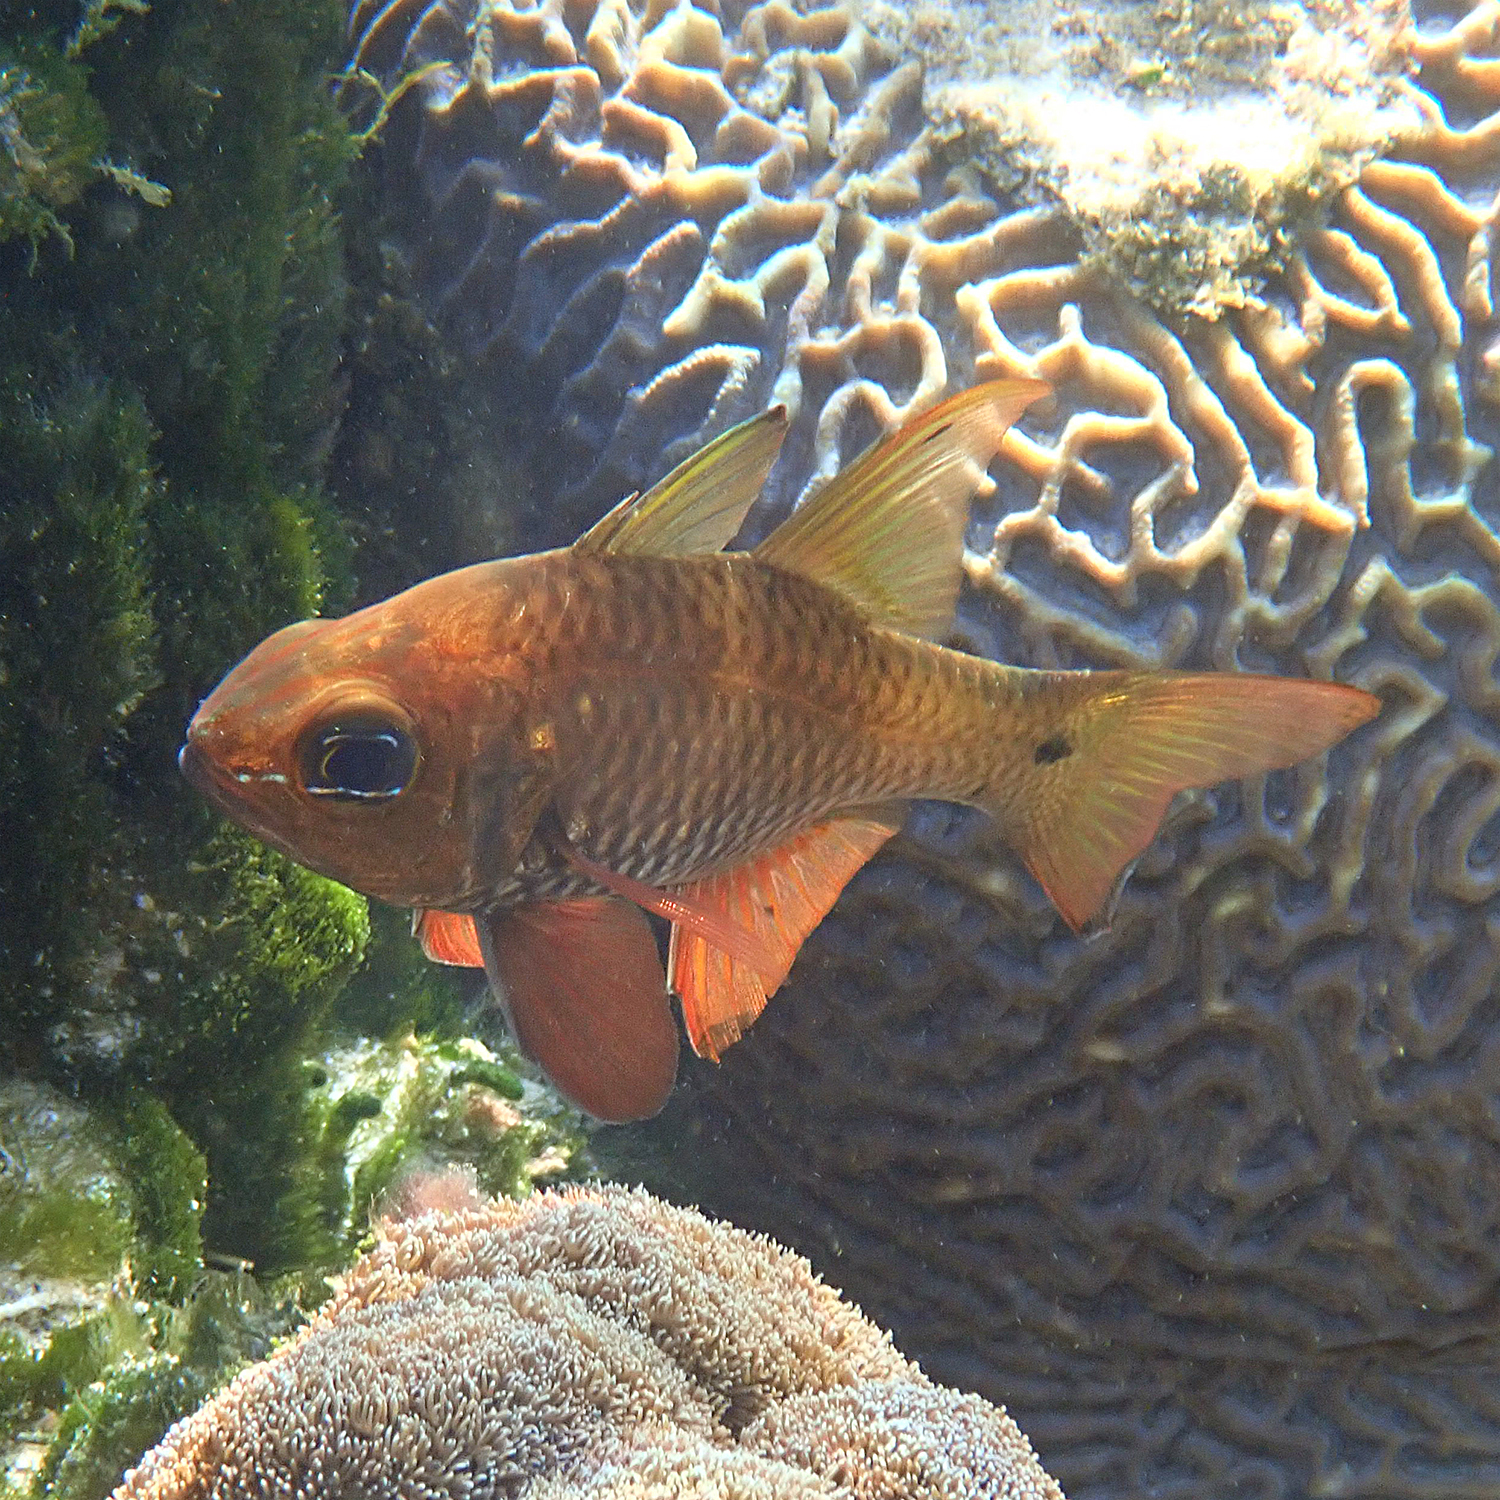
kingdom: Animalia
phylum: Chordata
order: Perciformes
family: Apogonidae
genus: Ostorhinchus
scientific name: Ostorhinchus norfolcensis
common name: Norfolk cardinalfish
